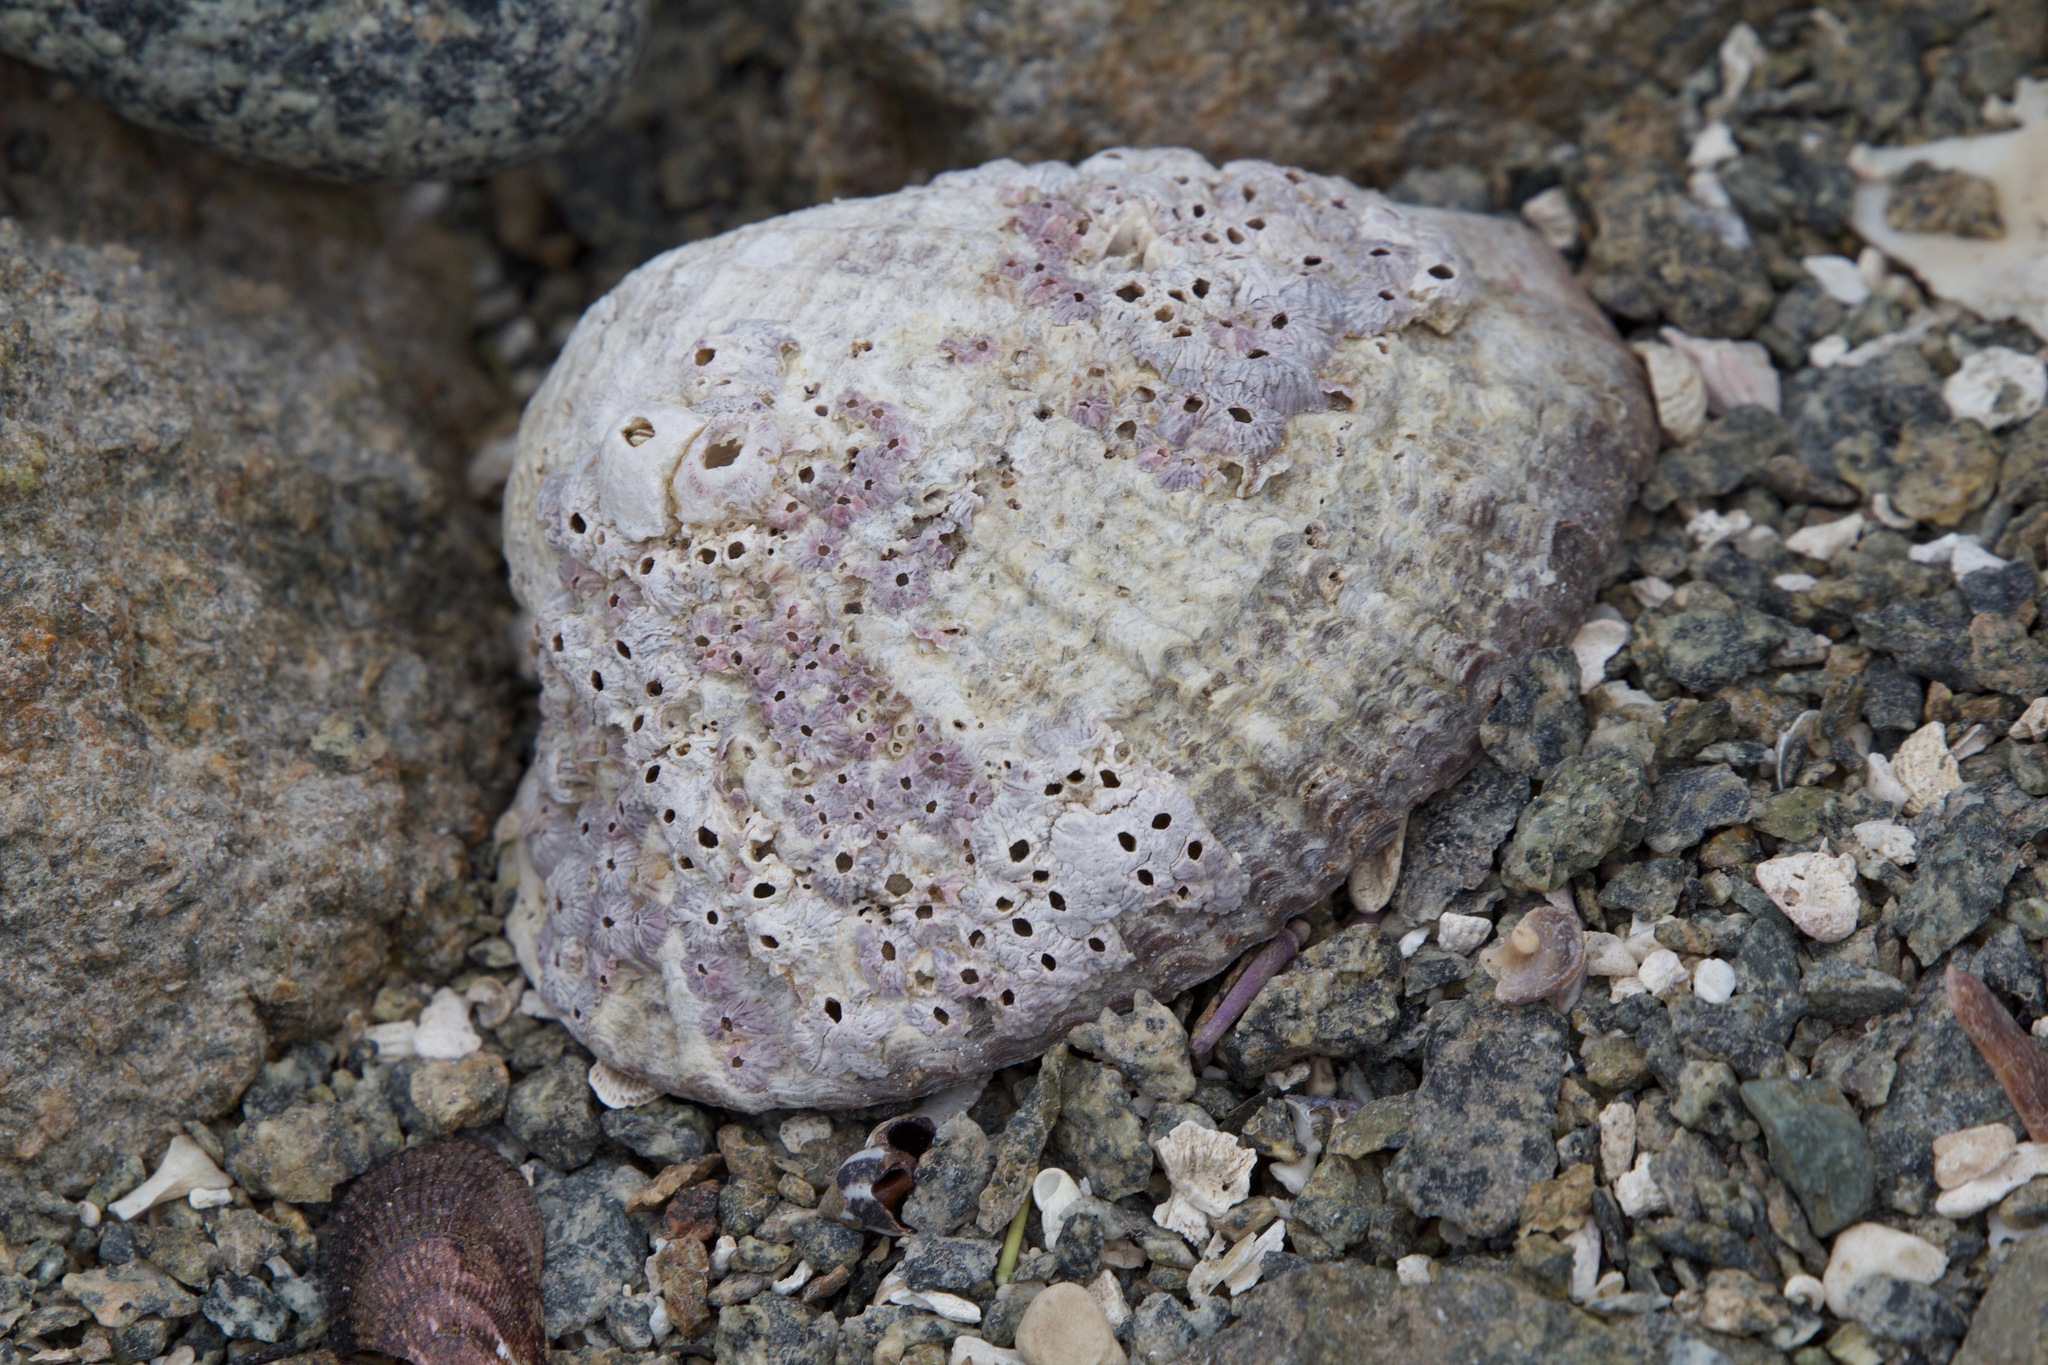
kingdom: Animalia
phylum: Mollusca
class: Gastropoda
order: Neogastropoda
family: Muricidae
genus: Concholepas
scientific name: Concholepas concholepas
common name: Chilean abalone
